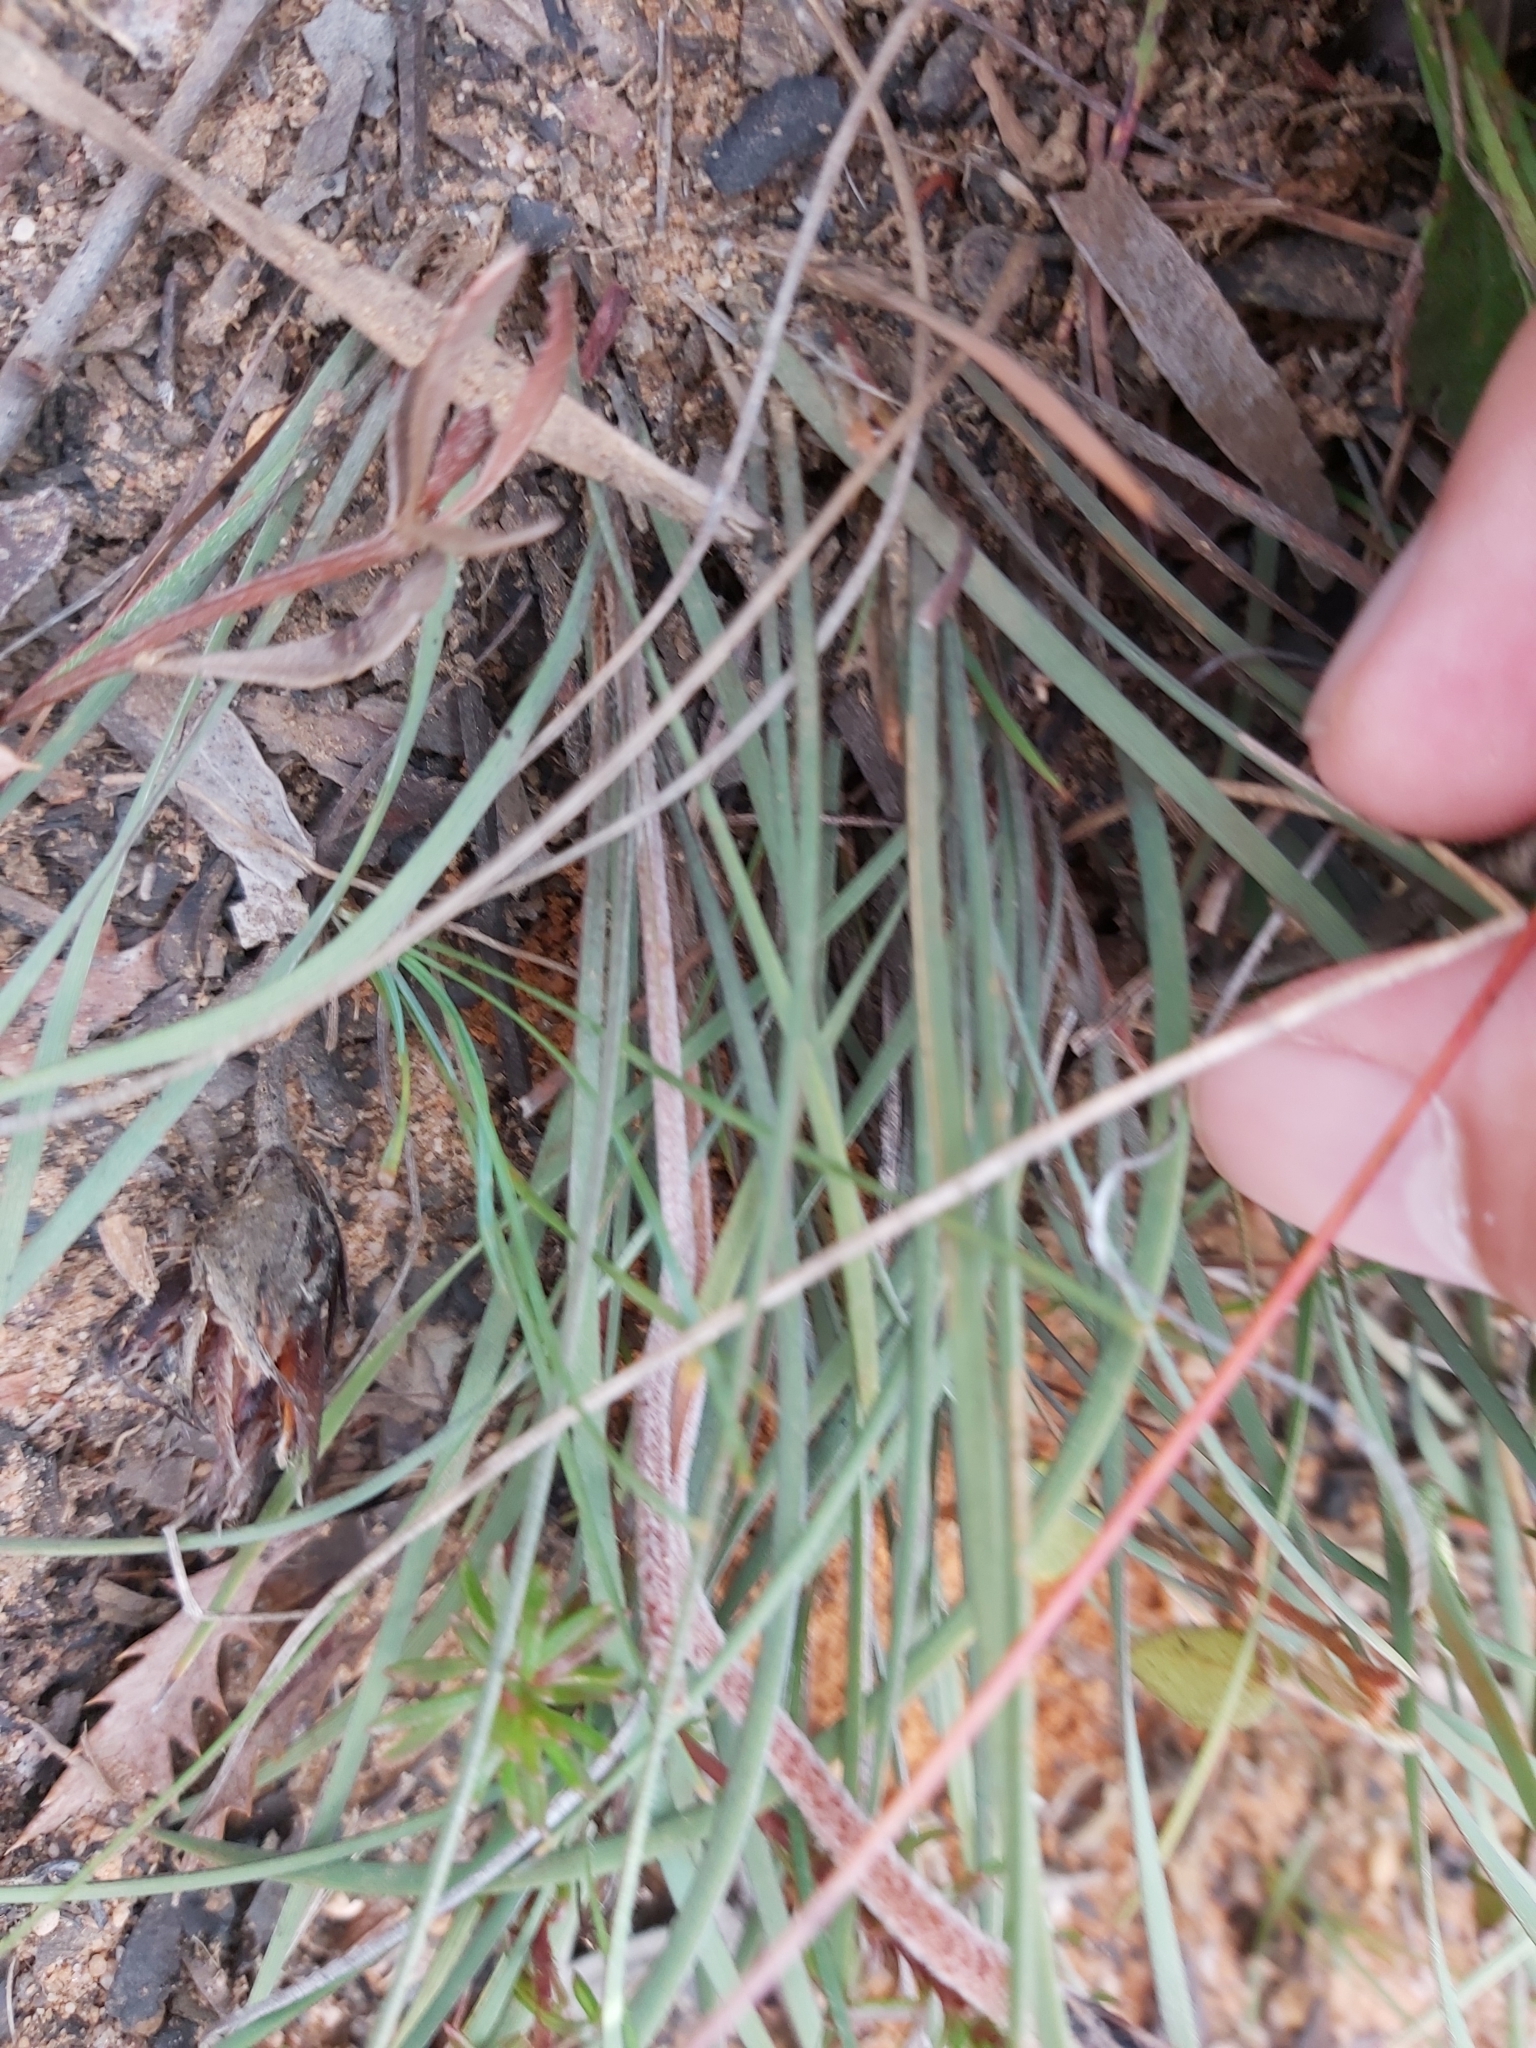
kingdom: Plantae
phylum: Tracheophyta
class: Liliopsida
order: Asparagales
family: Iridaceae
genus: Patersonia
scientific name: Patersonia sericea
